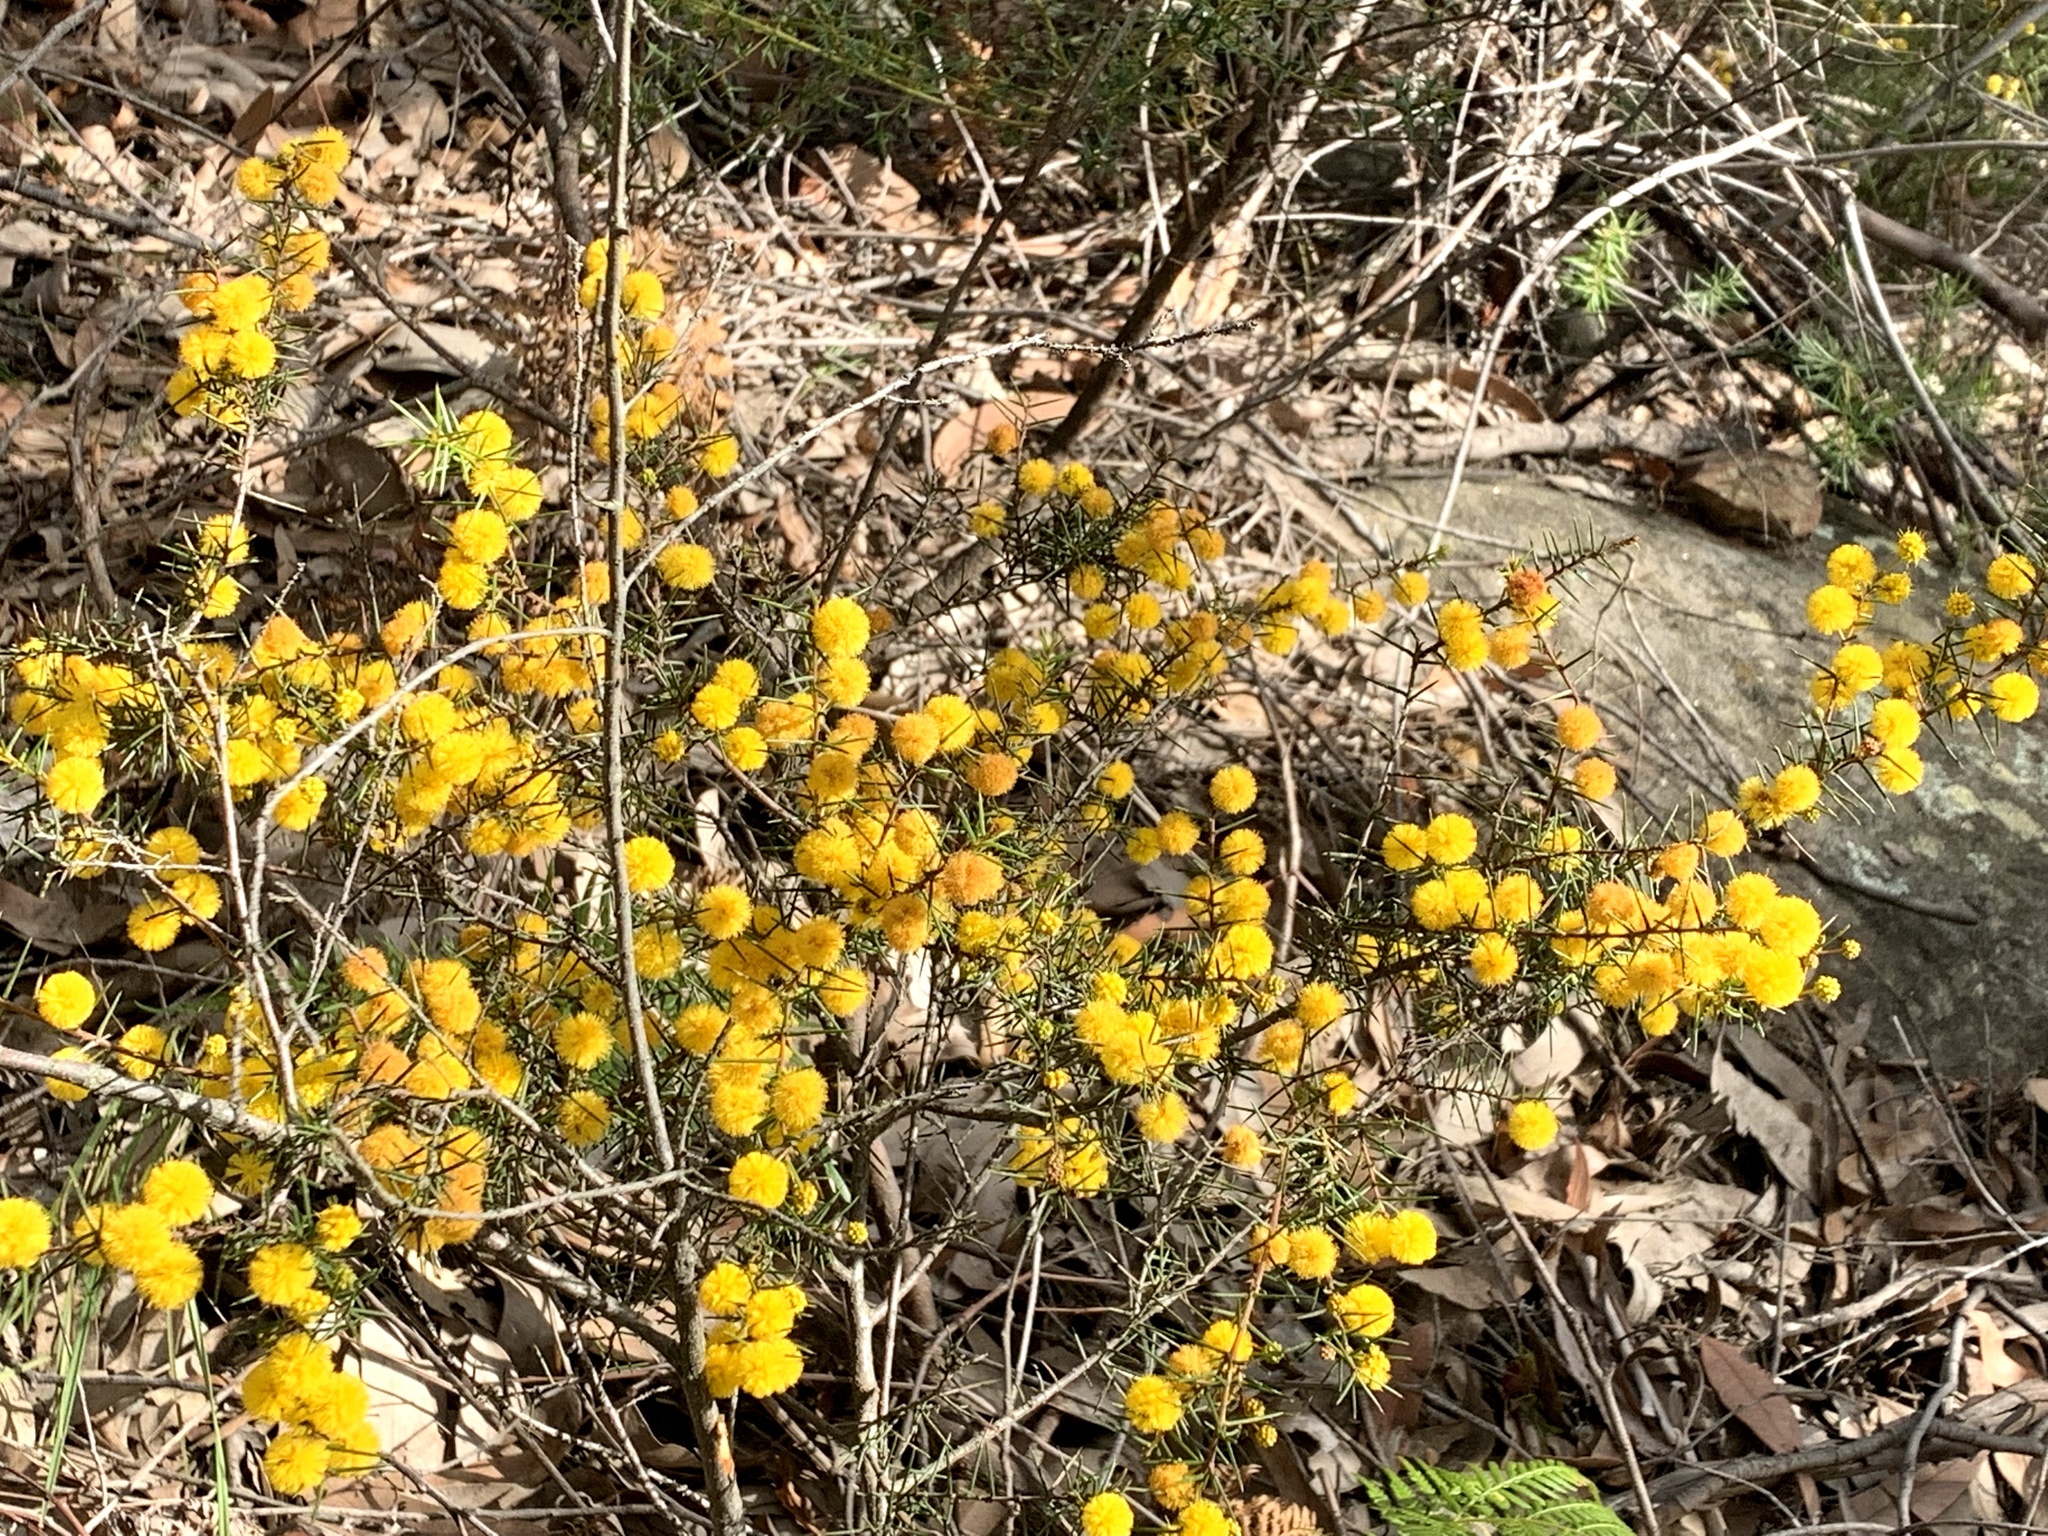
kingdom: Plantae
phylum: Tracheophyta
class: Magnoliopsida
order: Fabales
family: Fabaceae
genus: Acacia
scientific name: Acacia brownii
